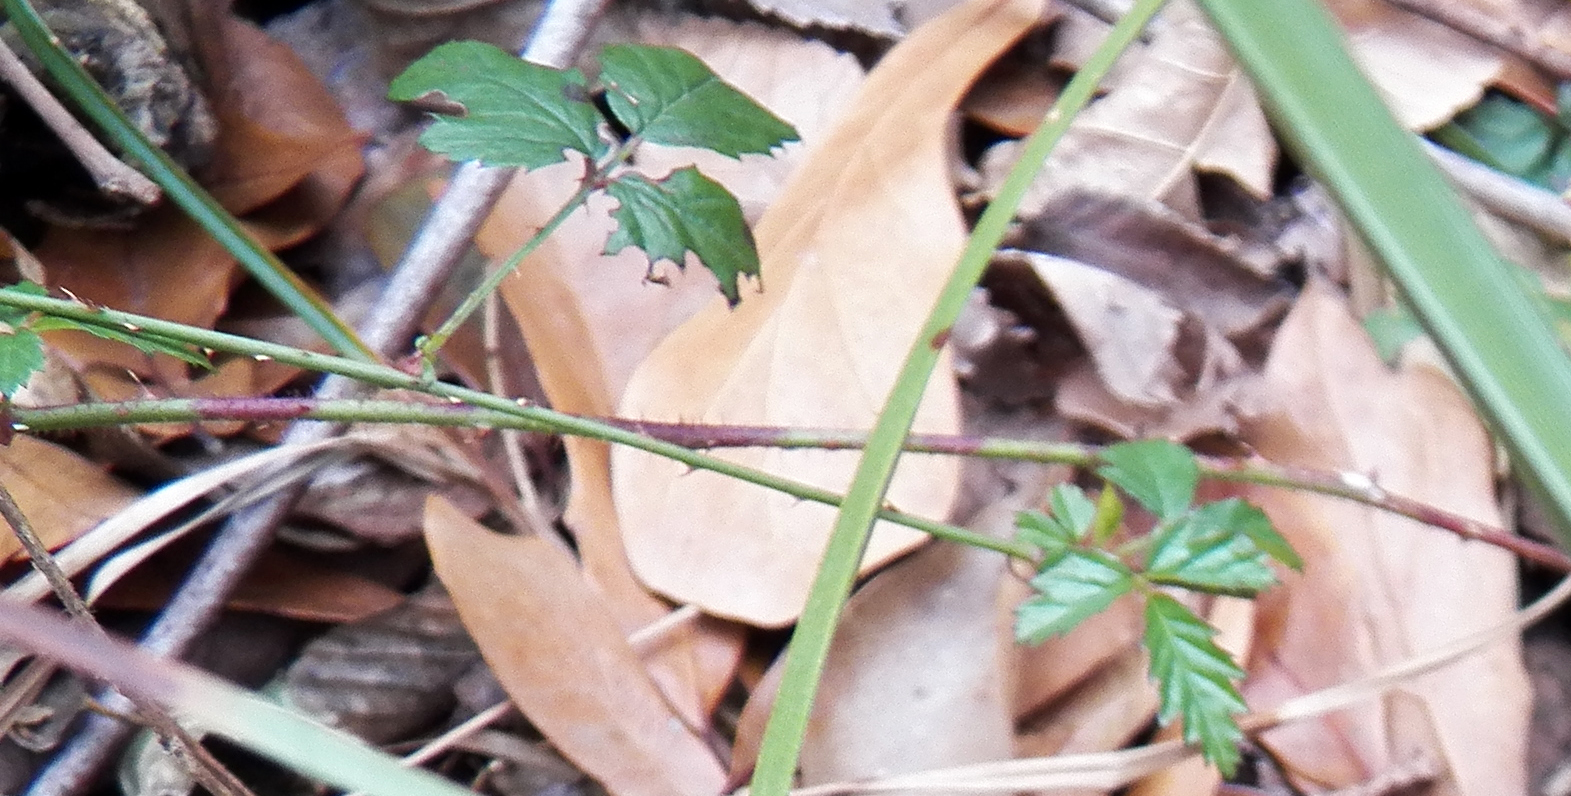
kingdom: Plantae
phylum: Tracheophyta
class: Magnoliopsida
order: Rosales
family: Rosaceae
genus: Rubus
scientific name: Rubus trivialis
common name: Southern dewberry
